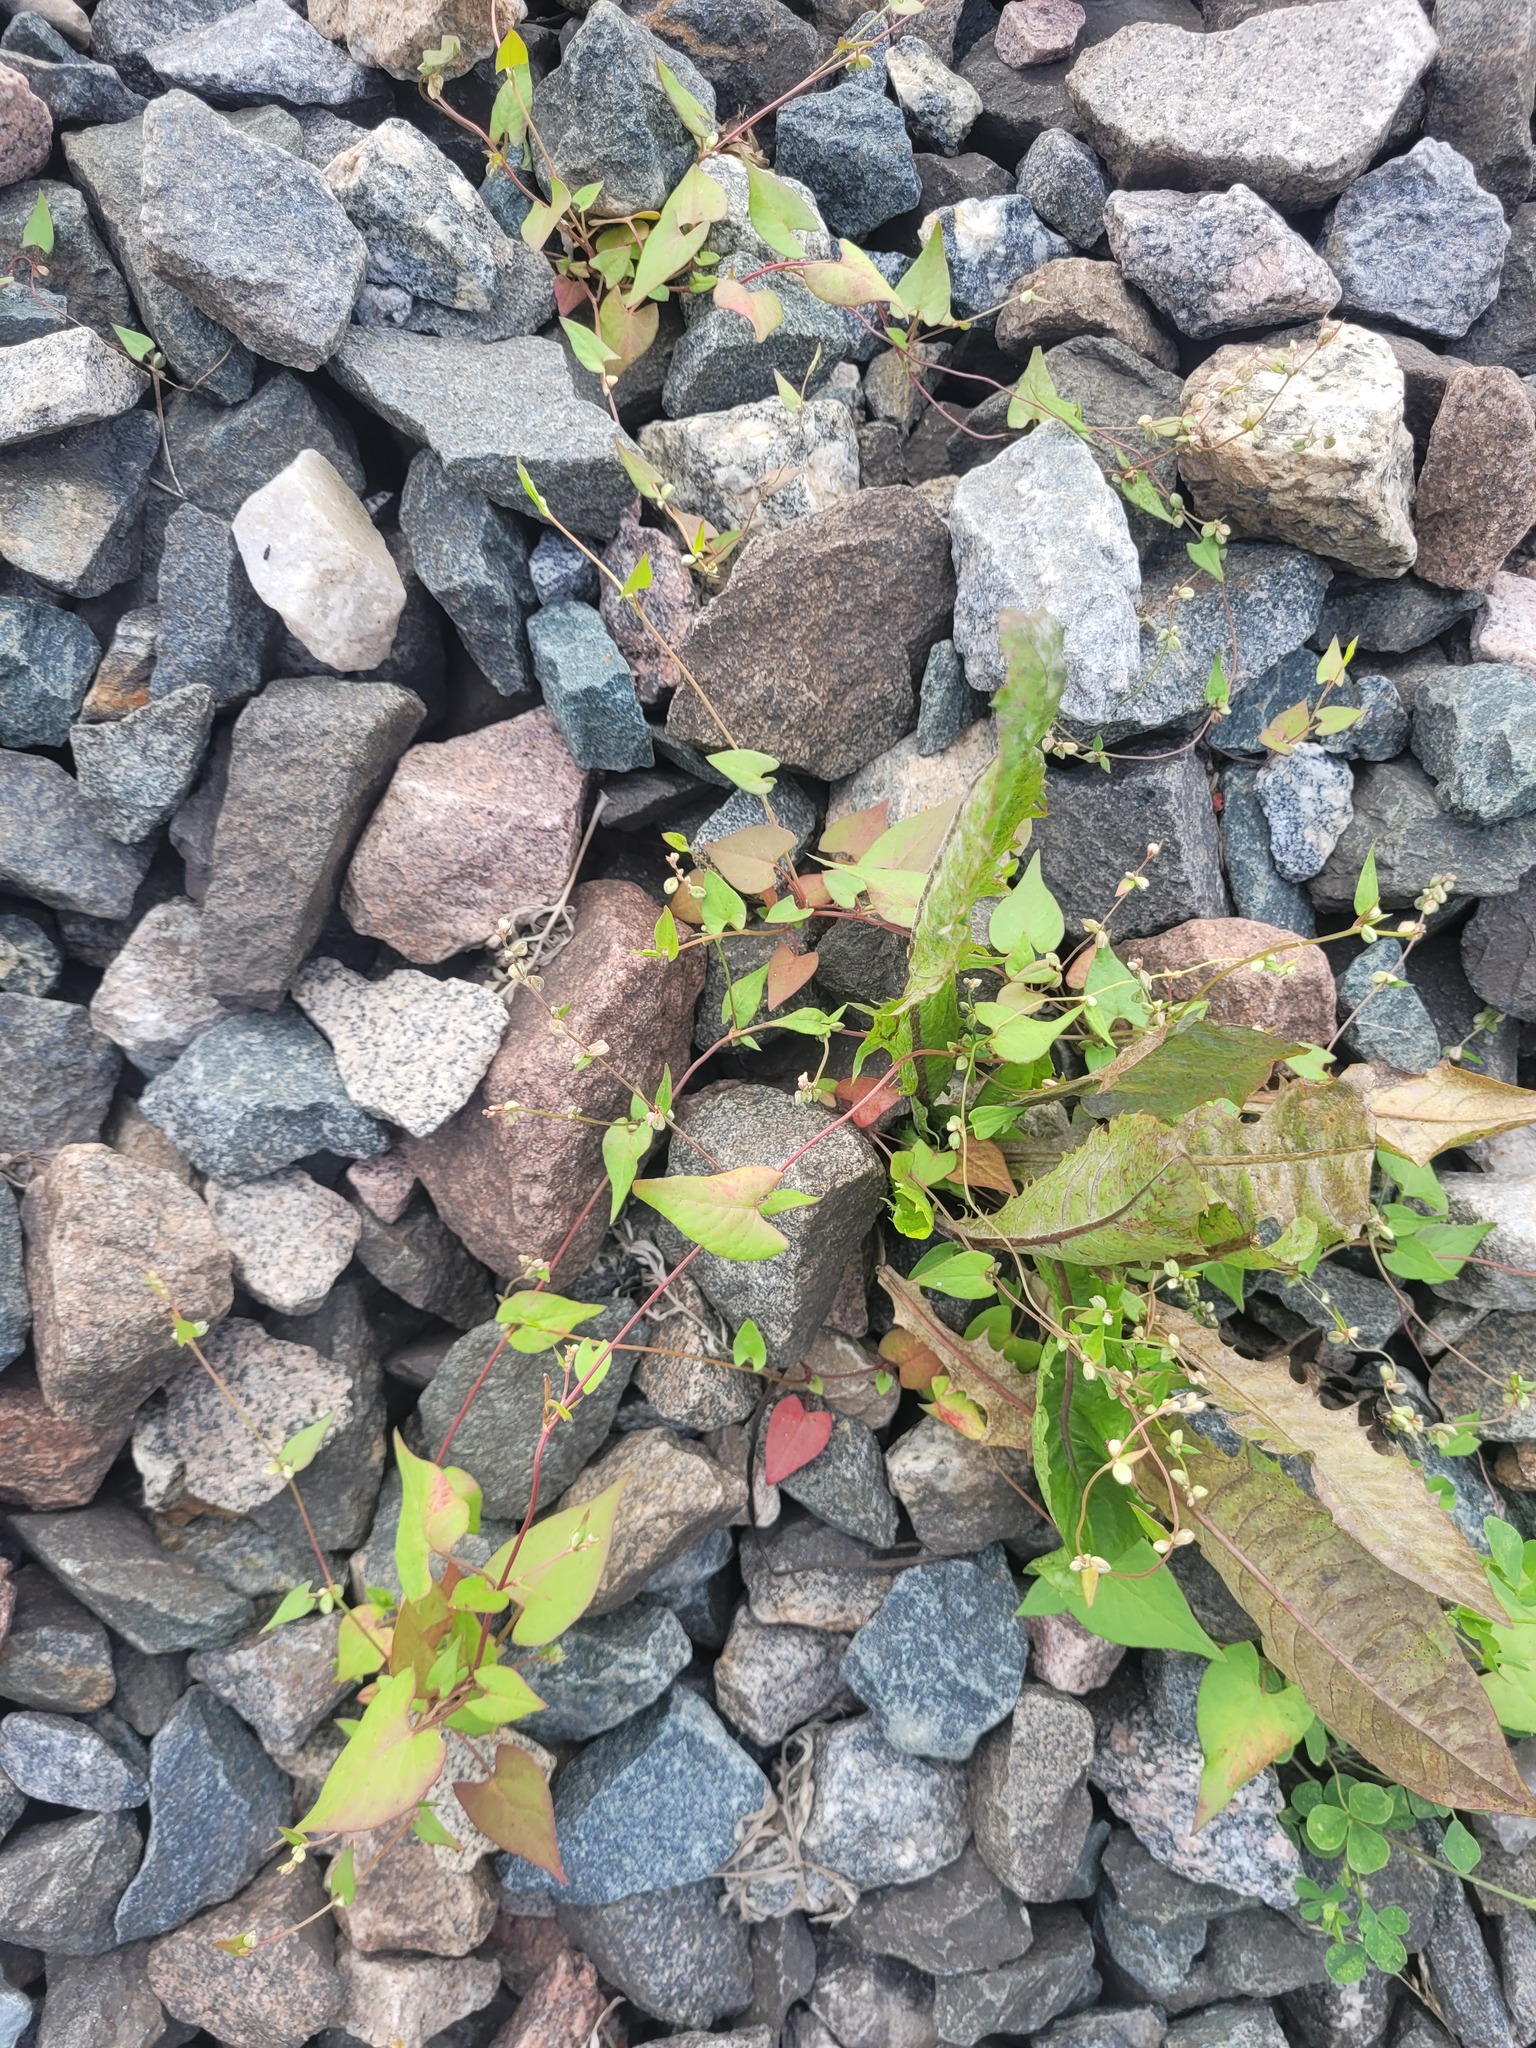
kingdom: Plantae
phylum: Tracheophyta
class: Magnoliopsida
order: Caryophyllales
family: Polygonaceae
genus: Fallopia
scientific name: Fallopia convolvulus
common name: Black bindweed
